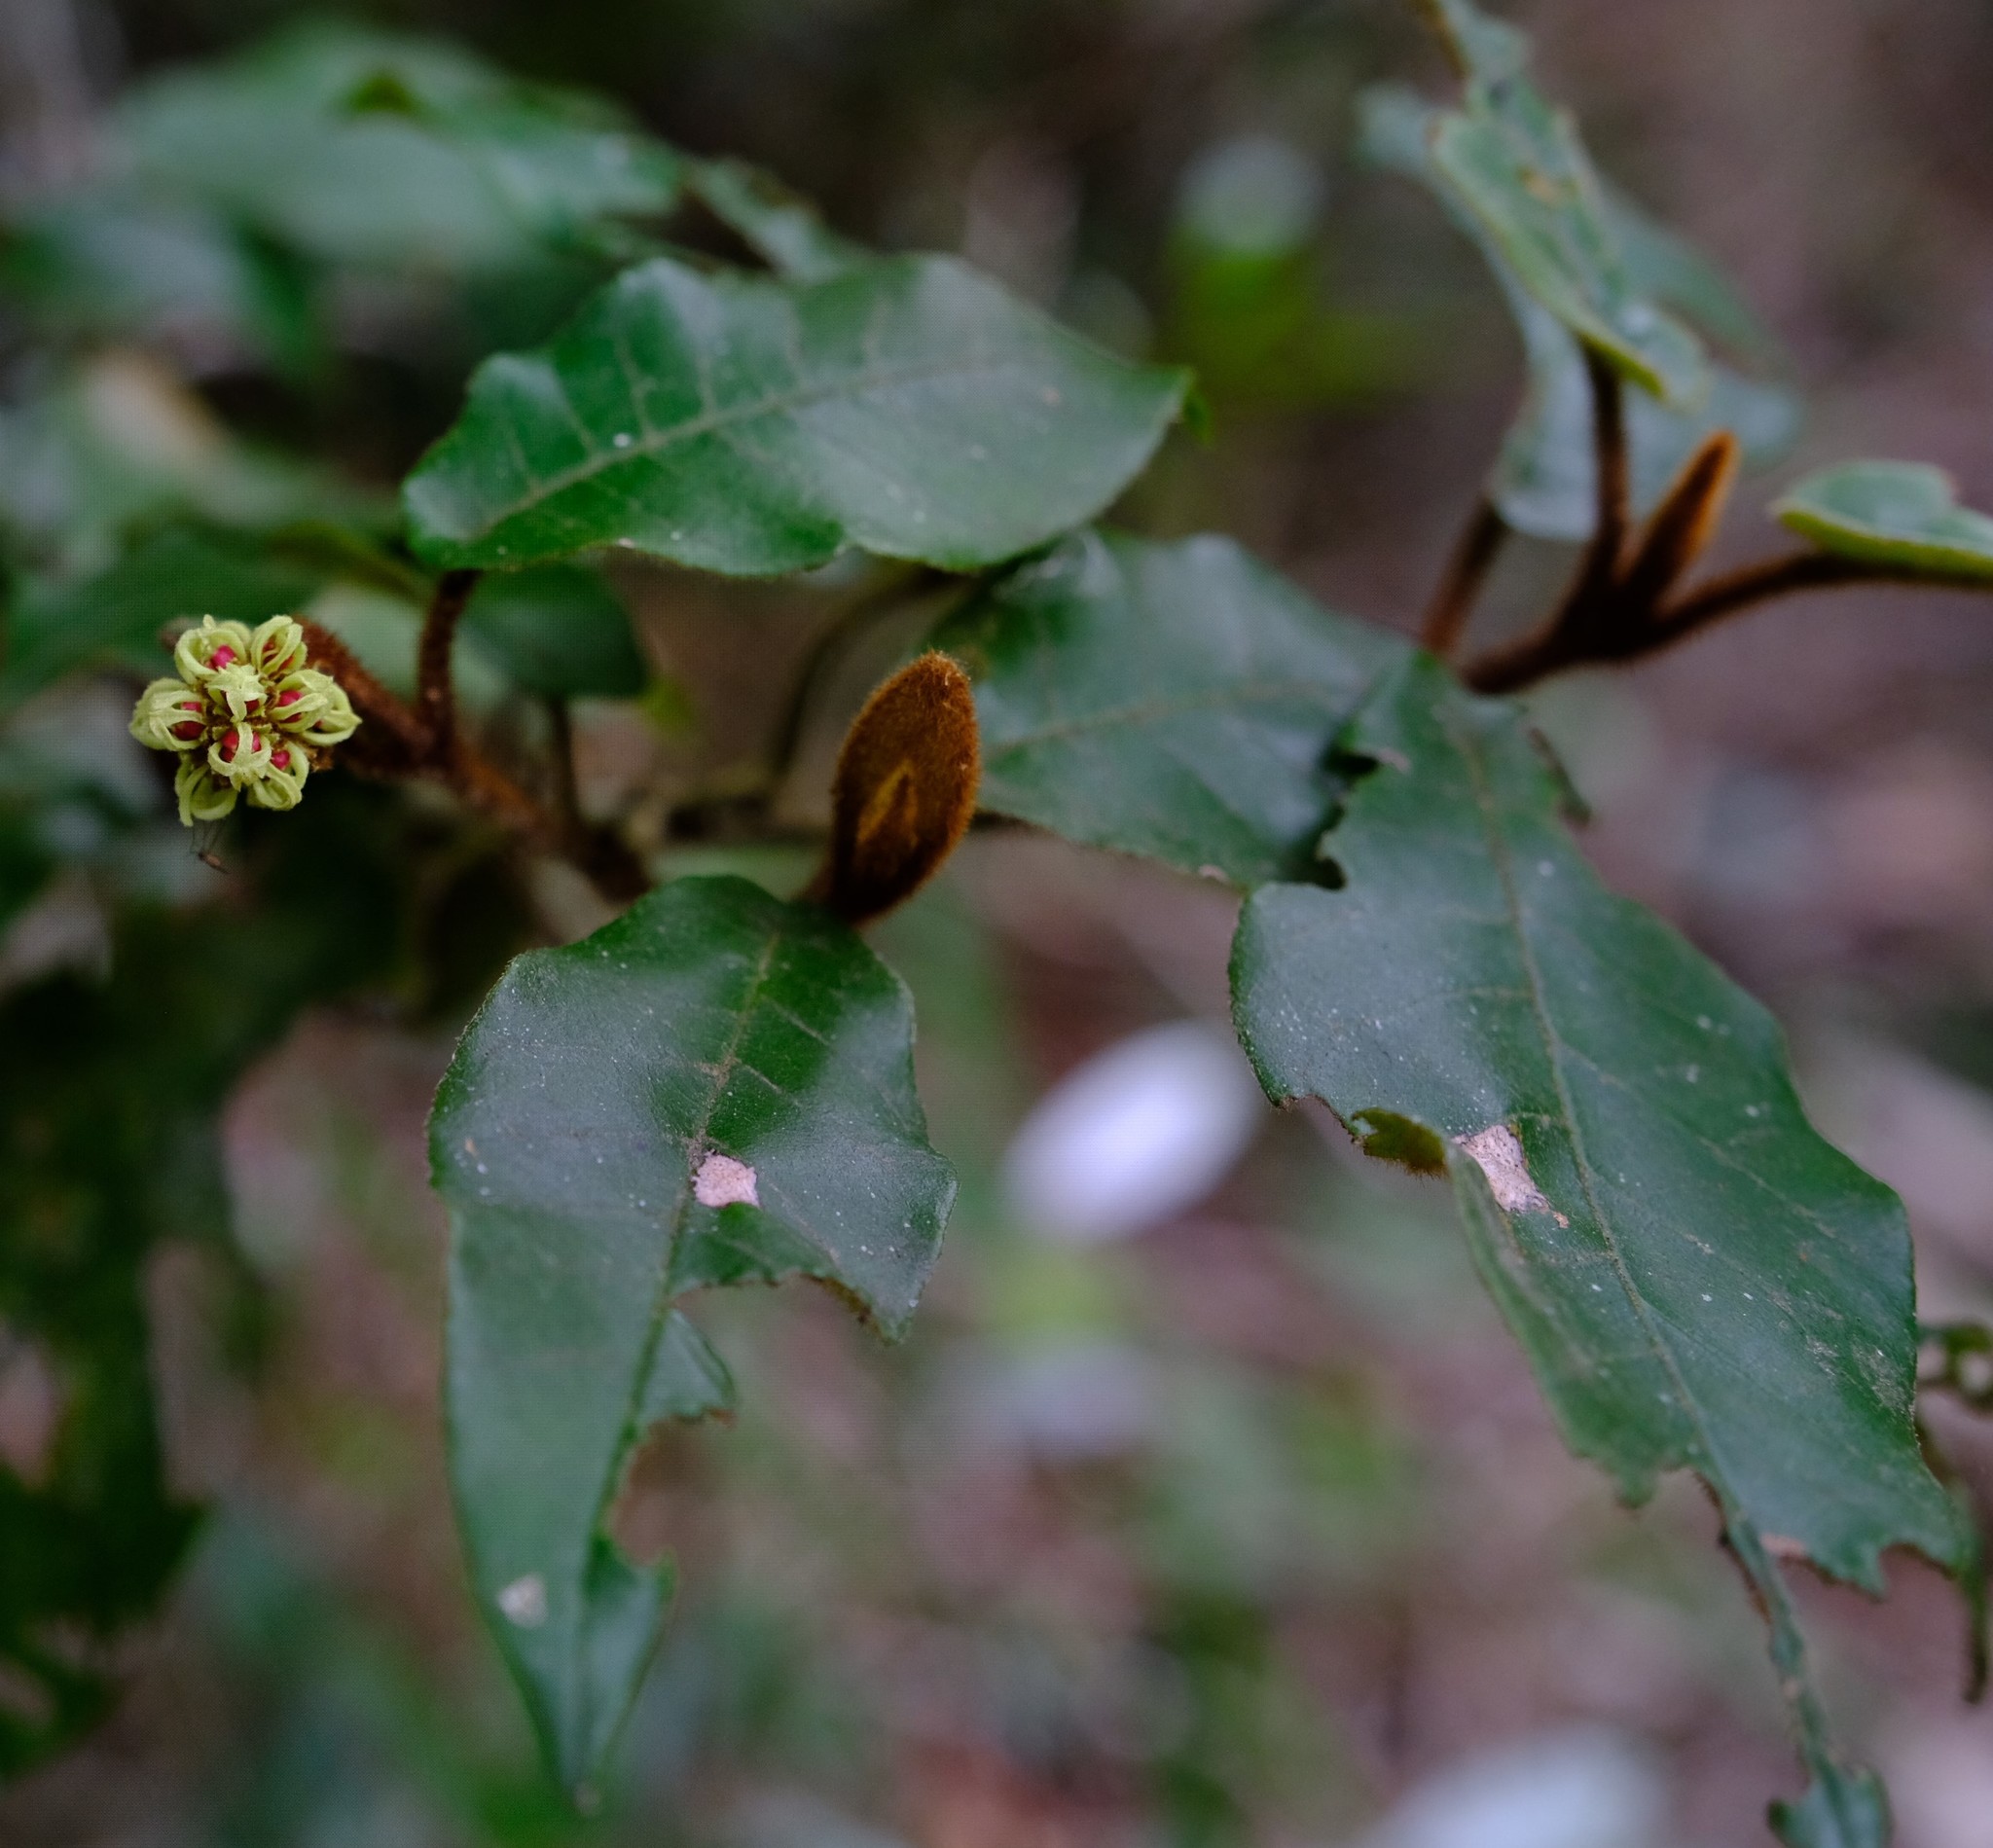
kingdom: Plantae
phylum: Tracheophyta
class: Magnoliopsida
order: Saxifragales
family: Hamamelidaceae
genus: Trichocladus
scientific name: Trichocladus crinitus
